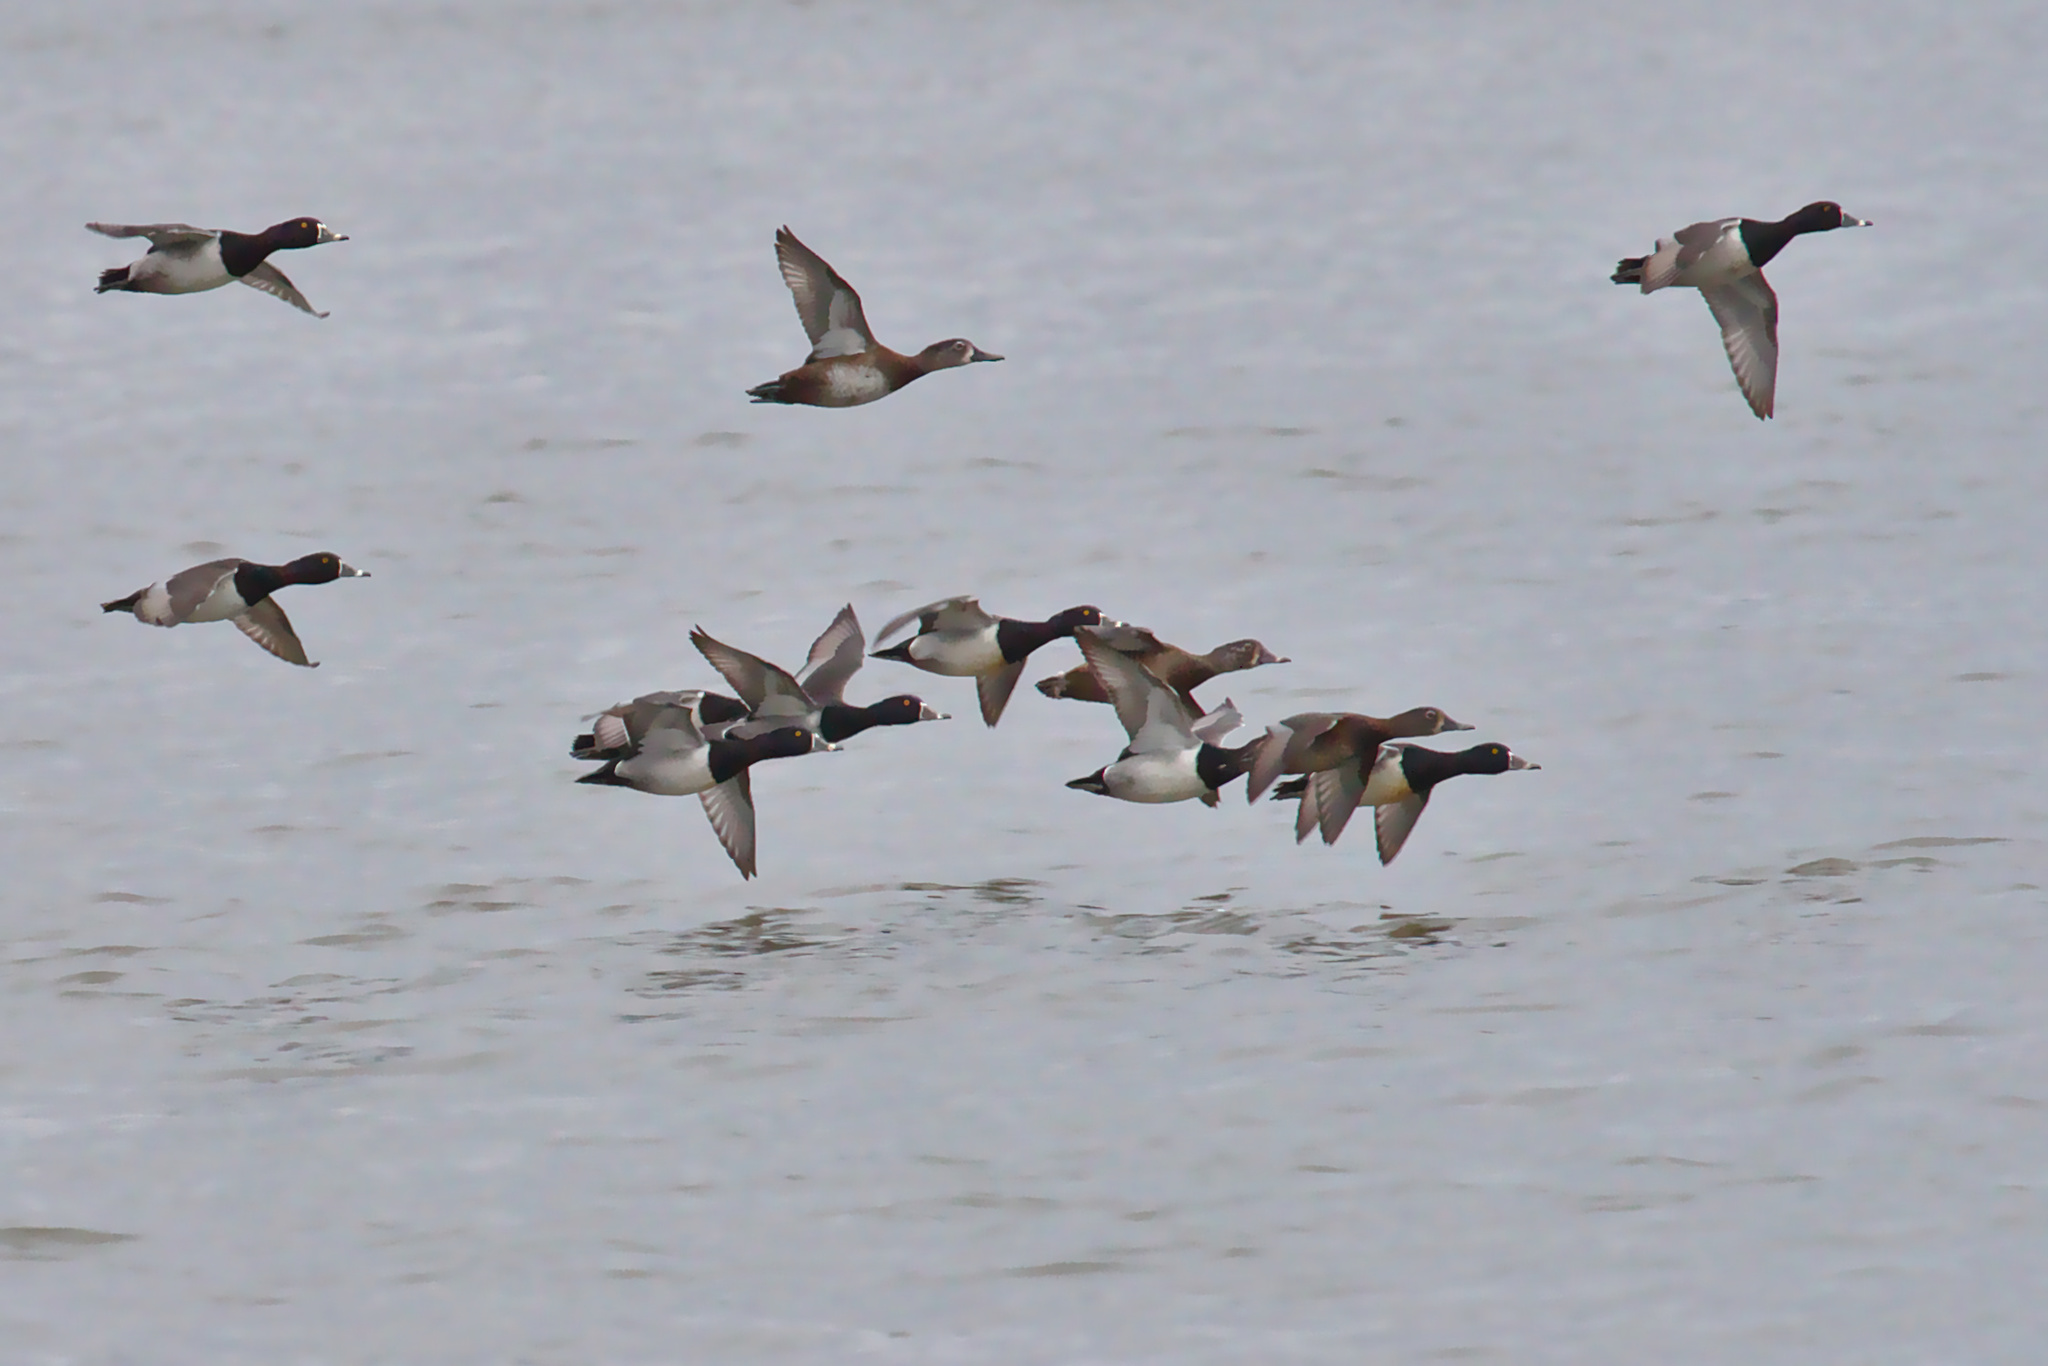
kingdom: Animalia
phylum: Chordata
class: Aves
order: Anseriformes
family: Anatidae
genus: Aythya
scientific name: Aythya collaris
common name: Ring-necked duck
